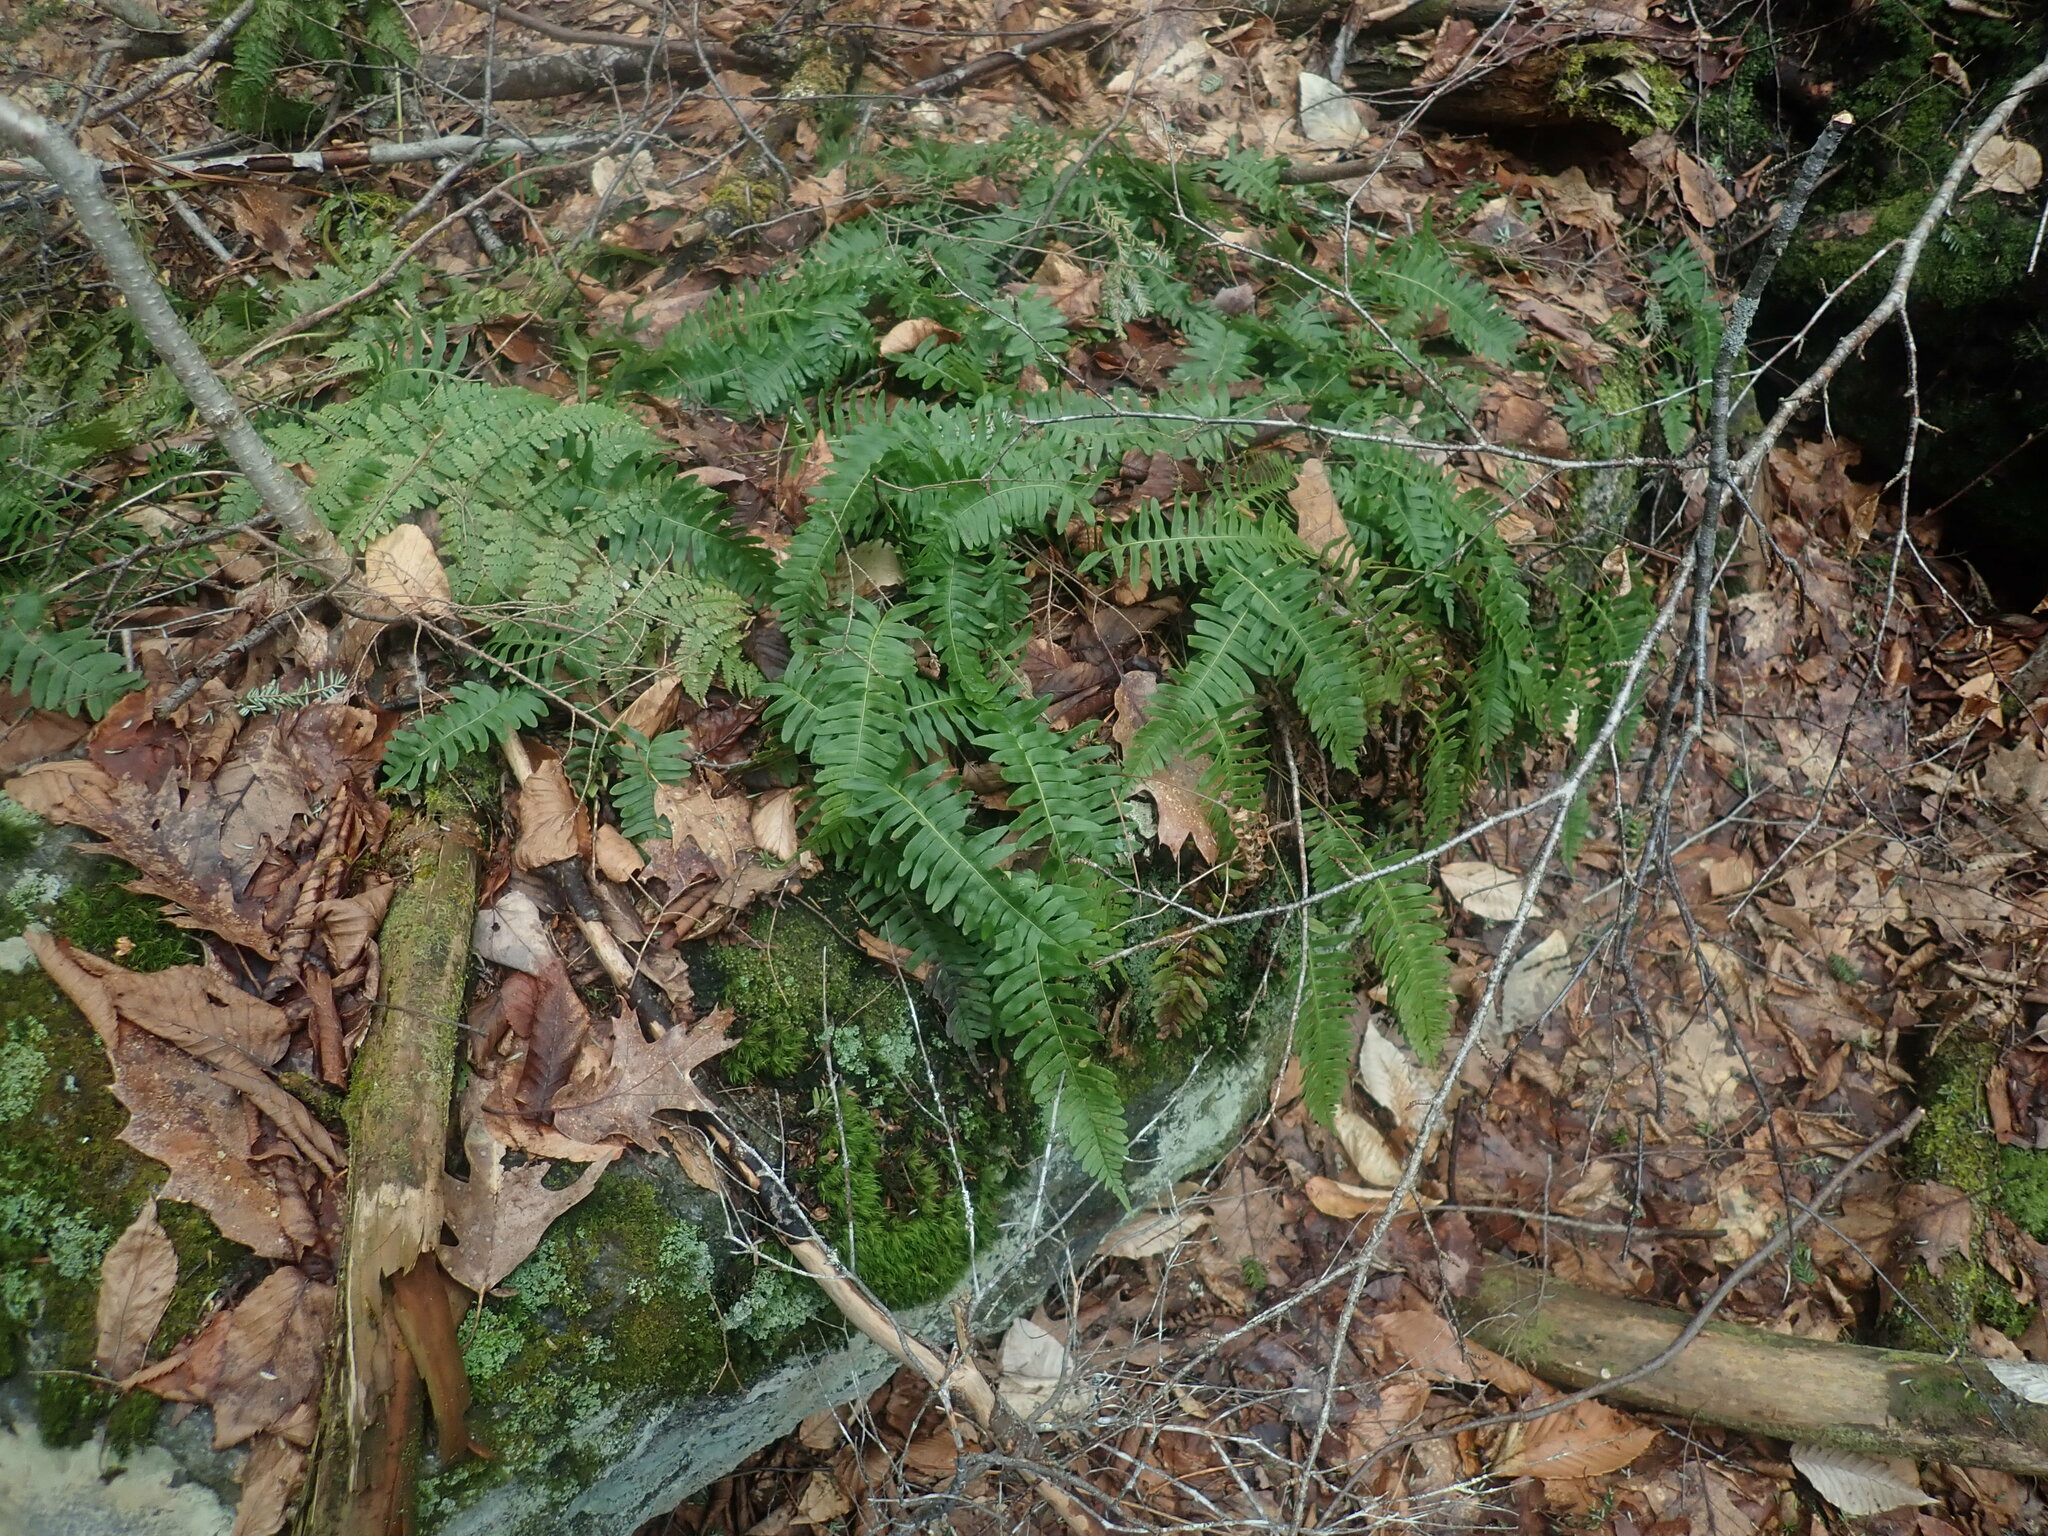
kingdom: Plantae
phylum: Tracheophyta
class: Polypodiopsida
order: Polypodiales
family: Polypodiaceae
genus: Polypodium
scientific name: Polypodium virginianum
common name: American wall fern
